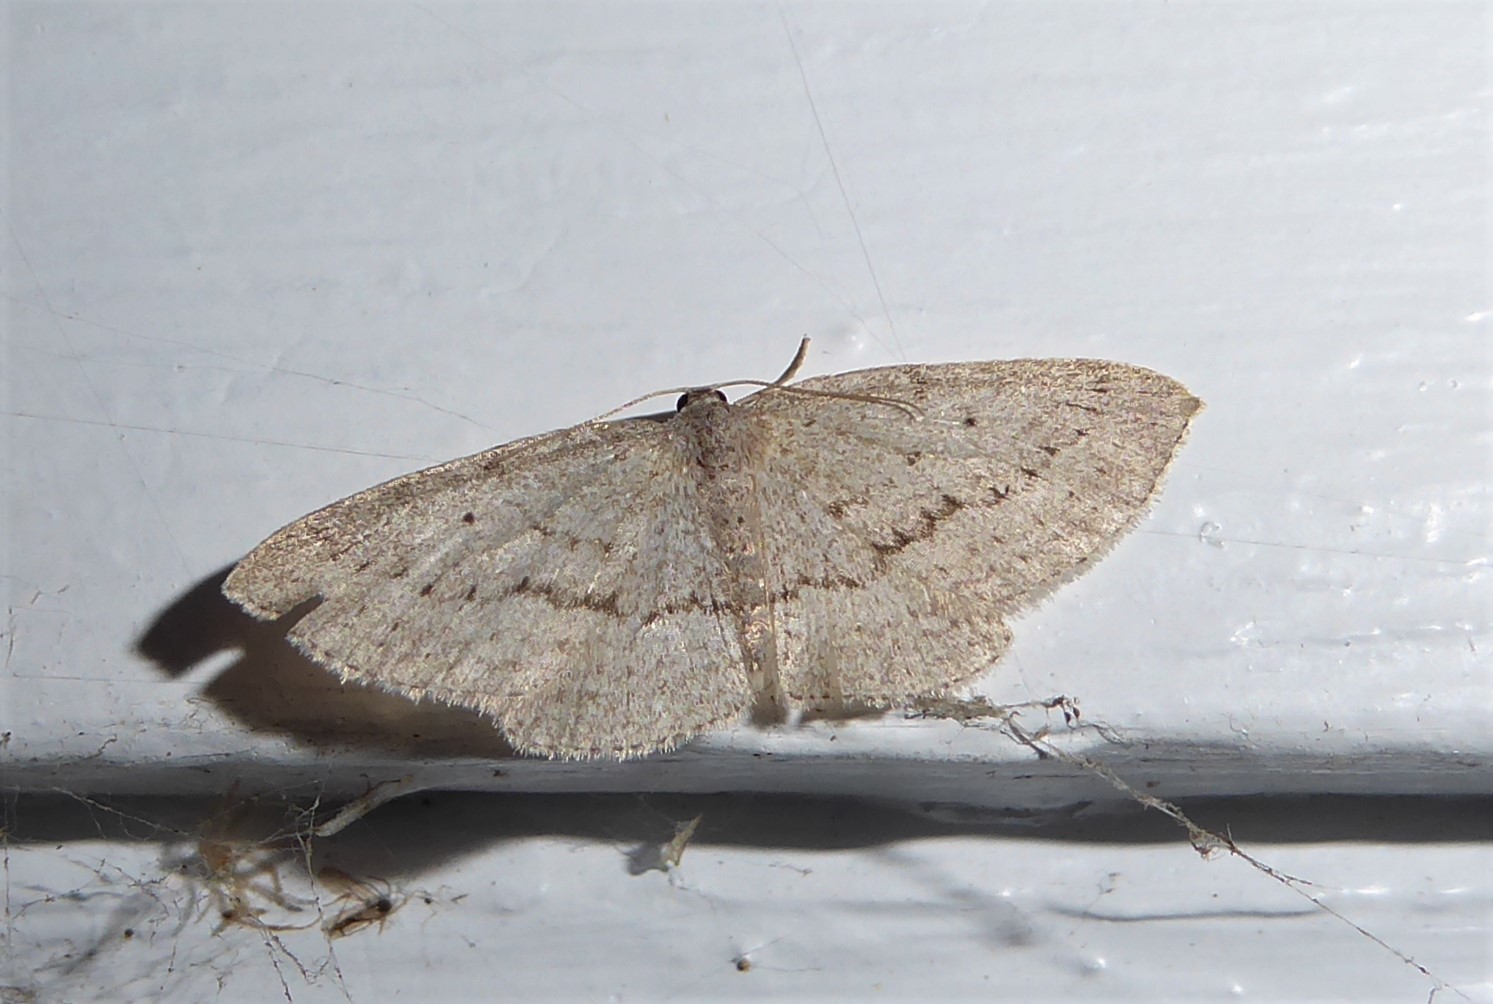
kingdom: Animalia
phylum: Arthropoda
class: Insecta
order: Lepidoptera
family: Geometridae
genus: Poecilasthena
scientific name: Poecilasthena schistaria
